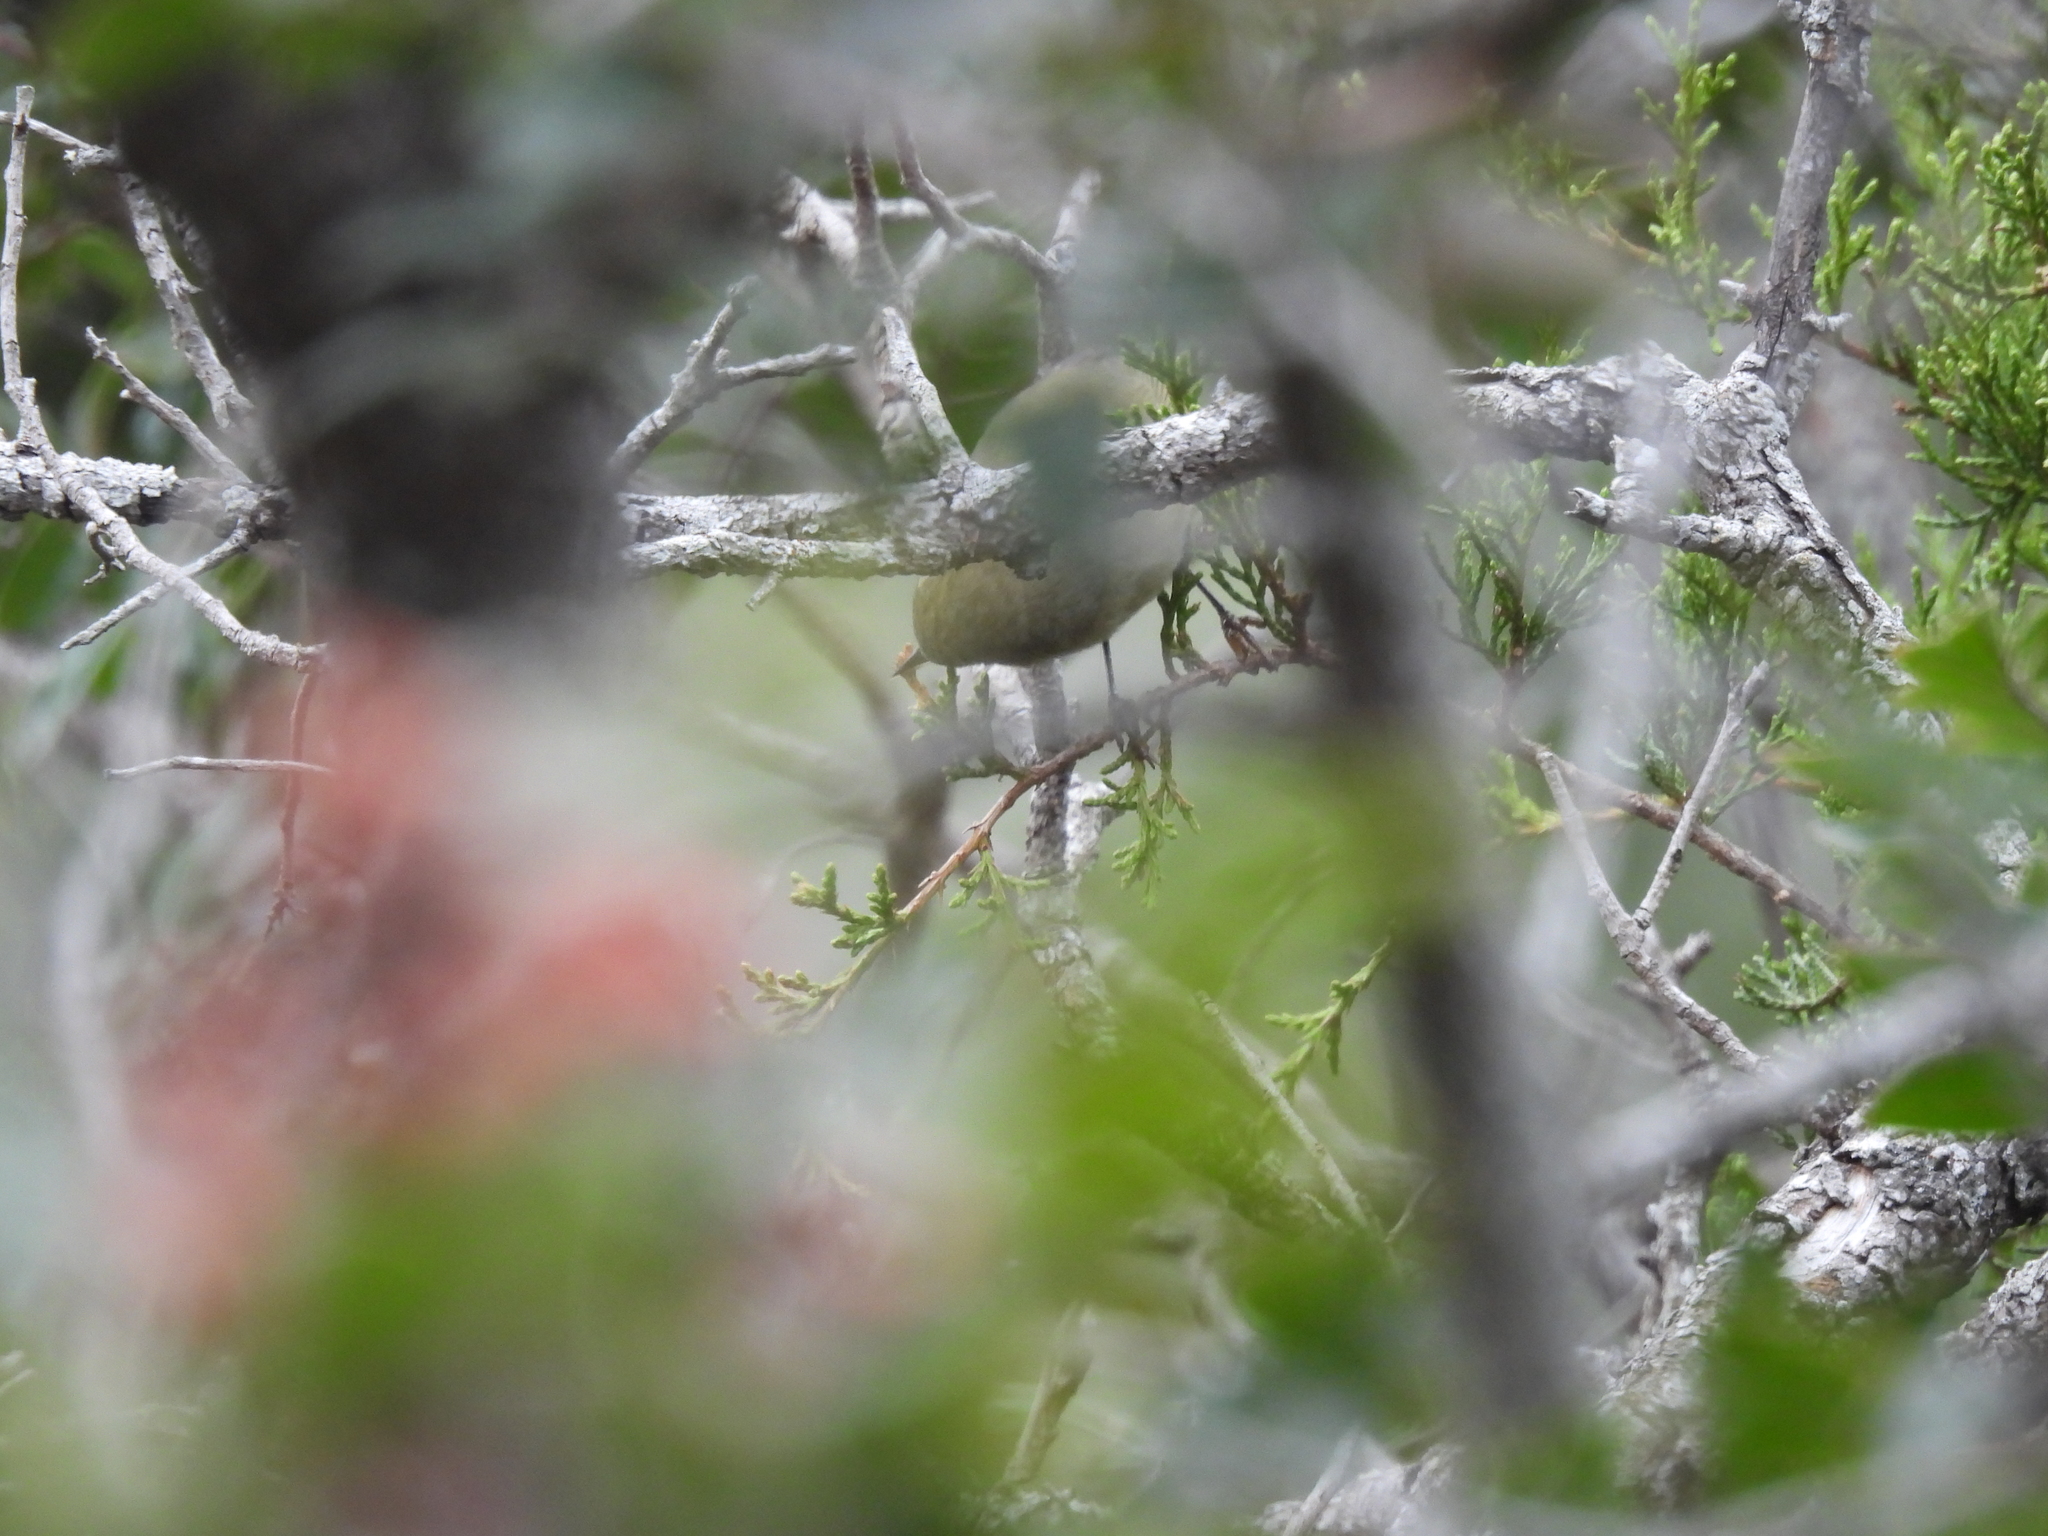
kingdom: Animalia
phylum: Chordata
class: Aves
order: Passeriformes
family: Parulidae
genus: Leiothlypis
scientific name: Leiothlypis celata
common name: Orange-crowned warbler
